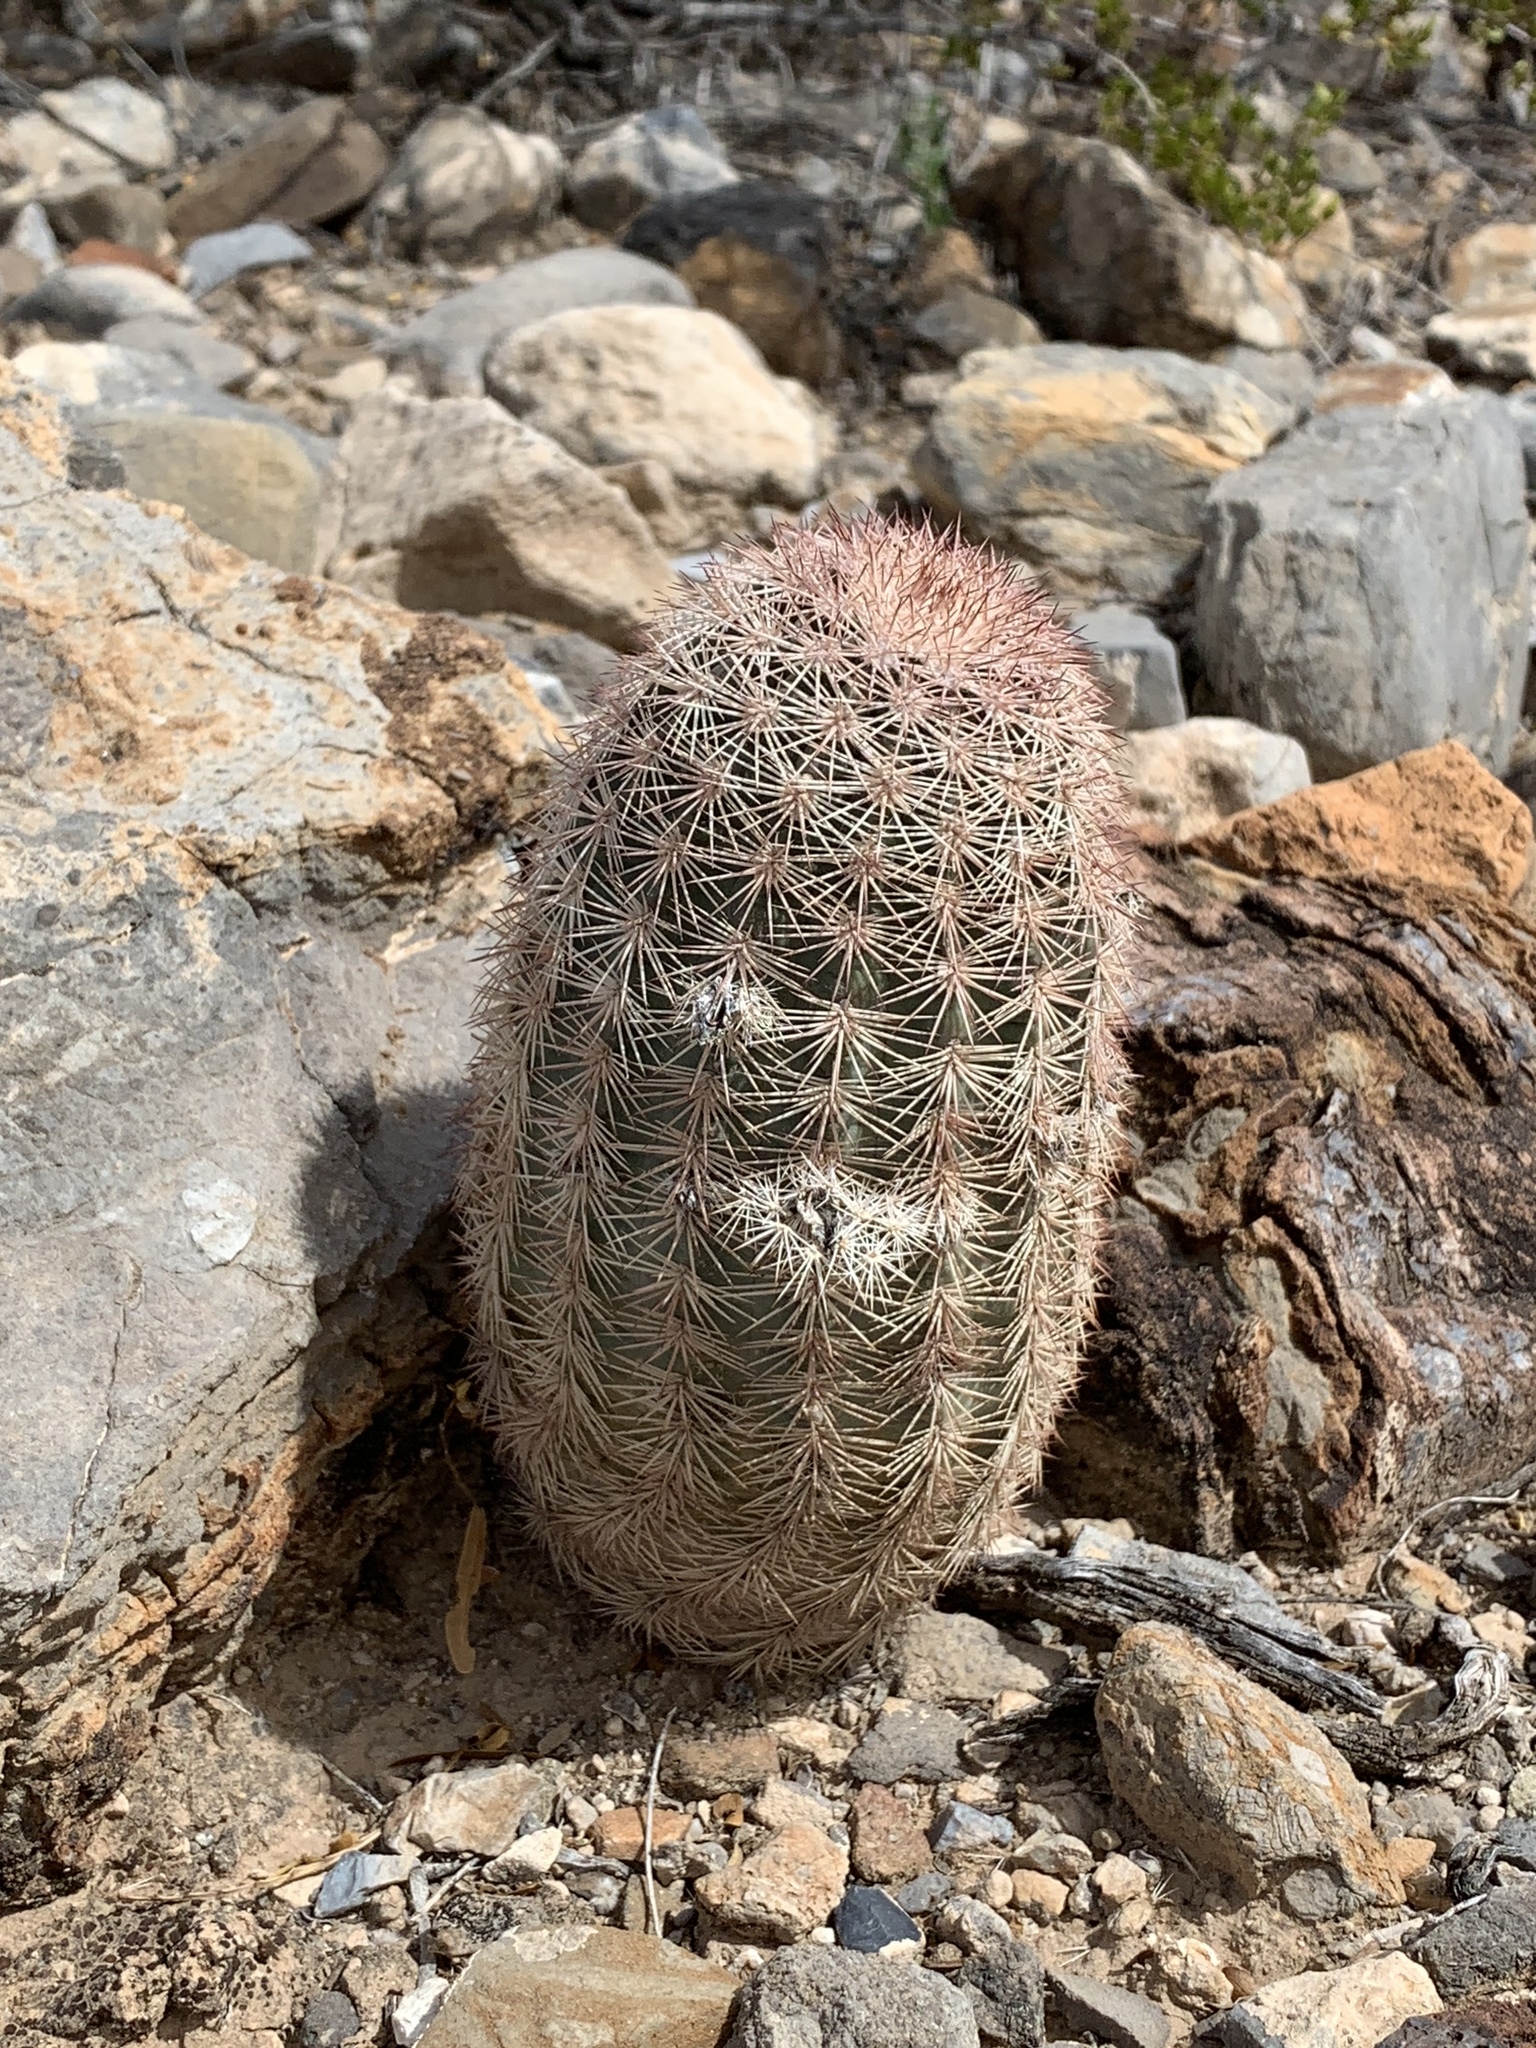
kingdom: Plantae
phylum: Tracheophyta
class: Magnoliopsida
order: Caryophyllales
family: Cactaceae
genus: Echinocereus
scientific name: Echinocereus dasyacanthus
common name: Spiny hedgehog cactus
